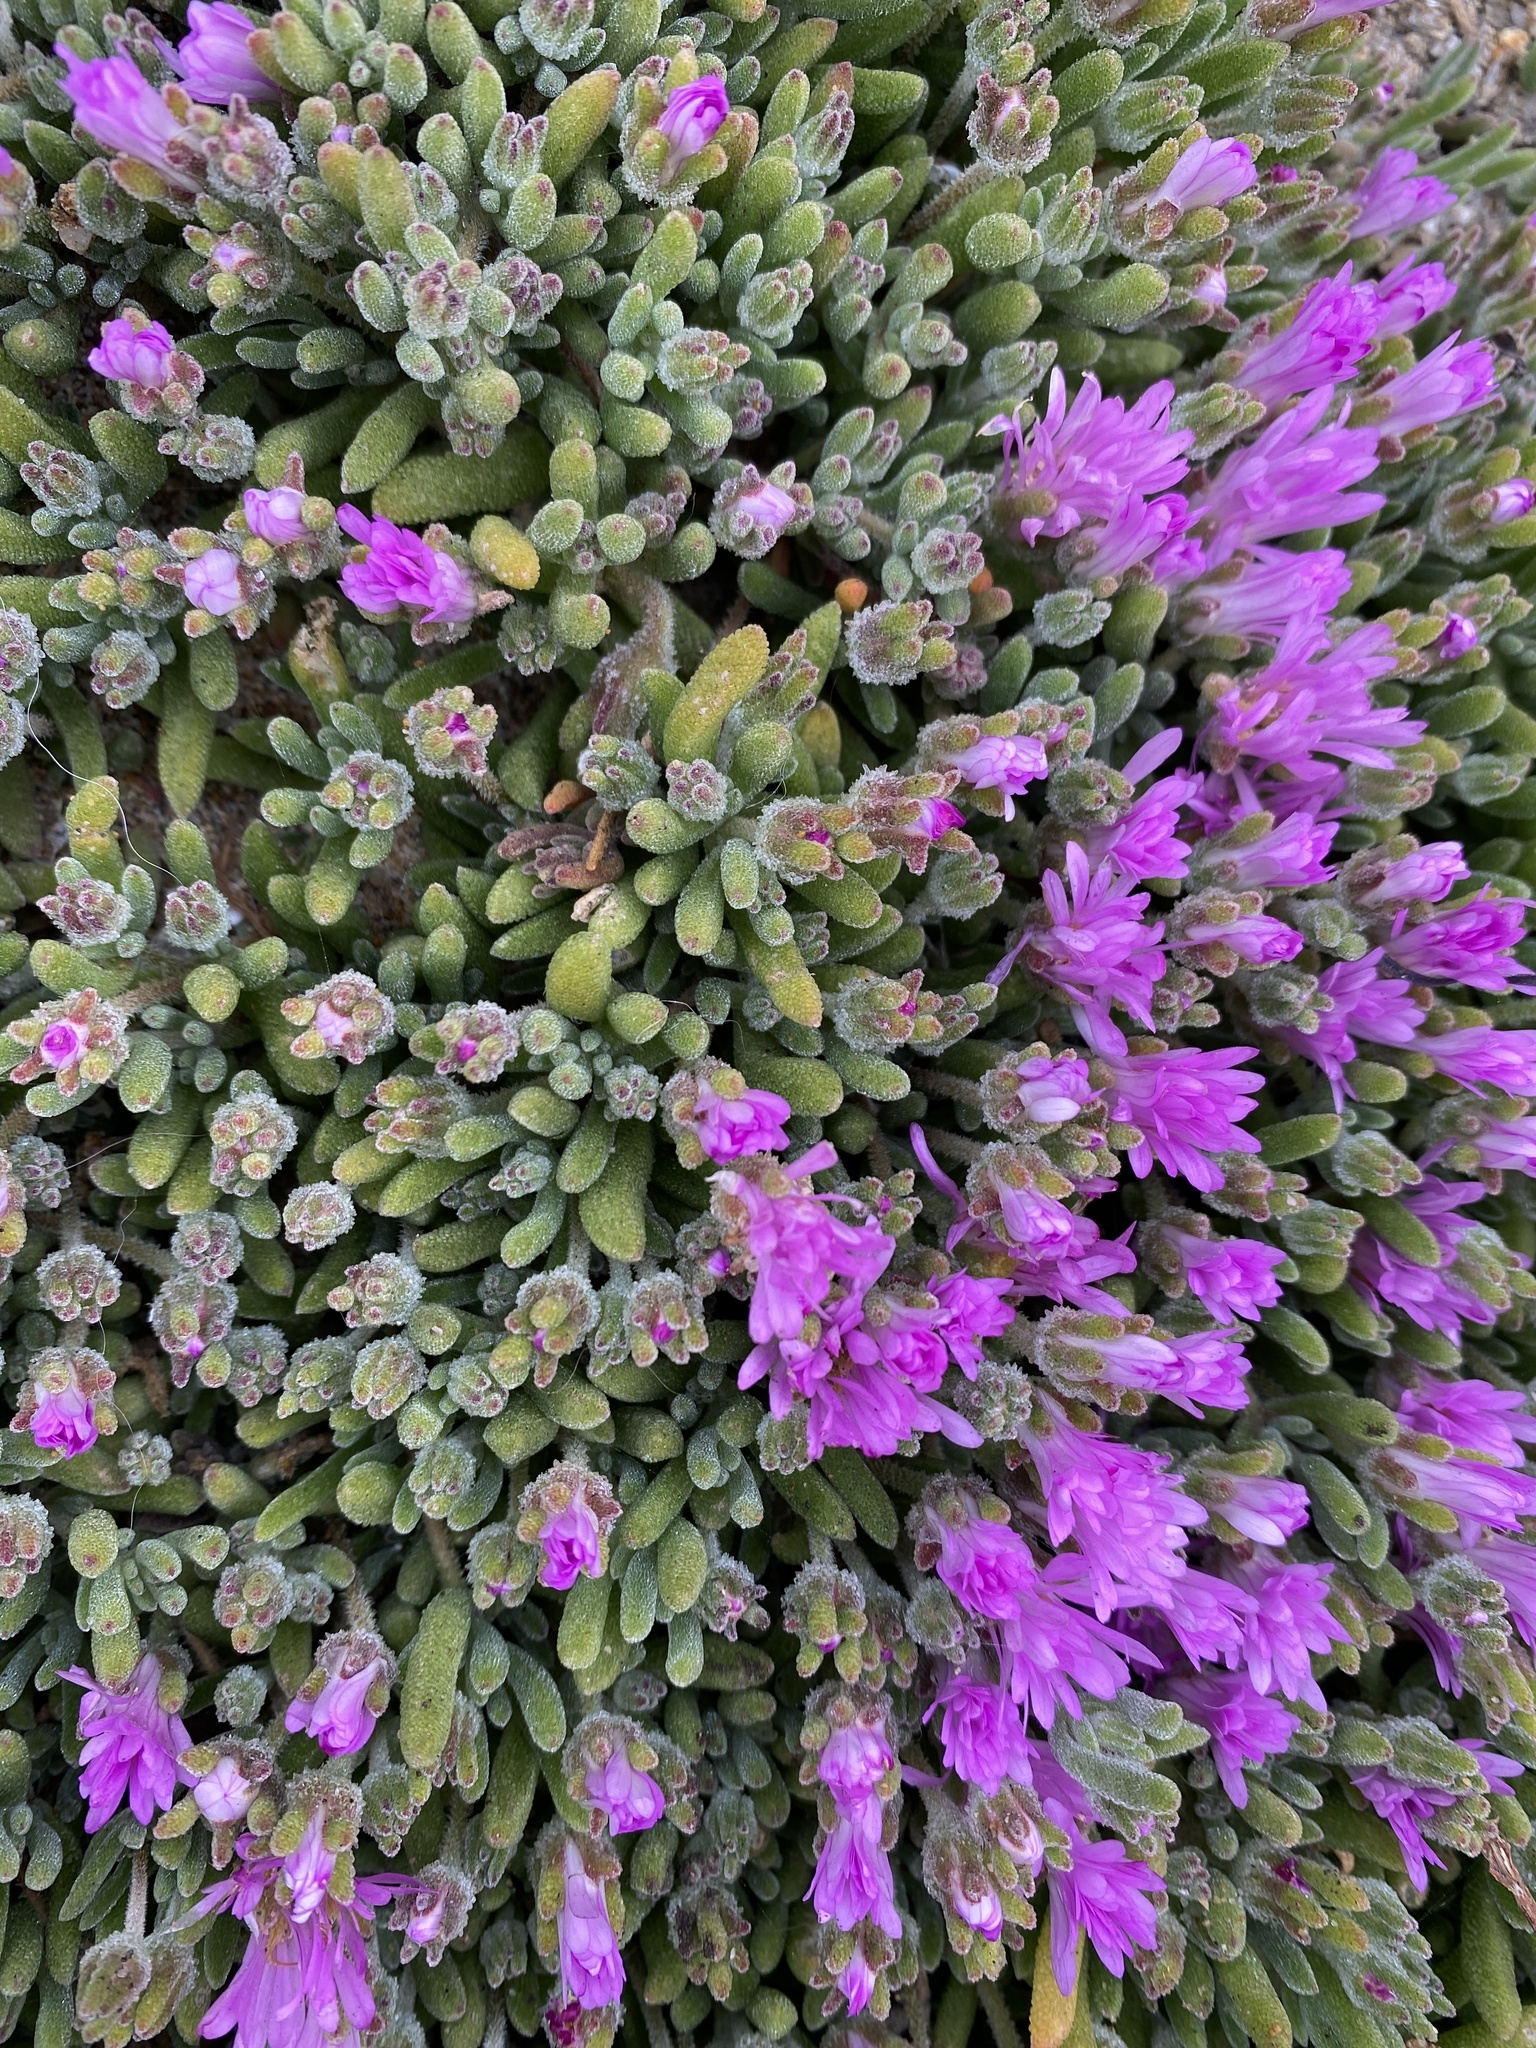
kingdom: Plantae
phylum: Tracheophyta
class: Magnoliopsida
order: Caryophyllales
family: Aizoaceae
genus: Drosanthemum
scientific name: Drosanthemum floribundum
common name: Pale dewplant
